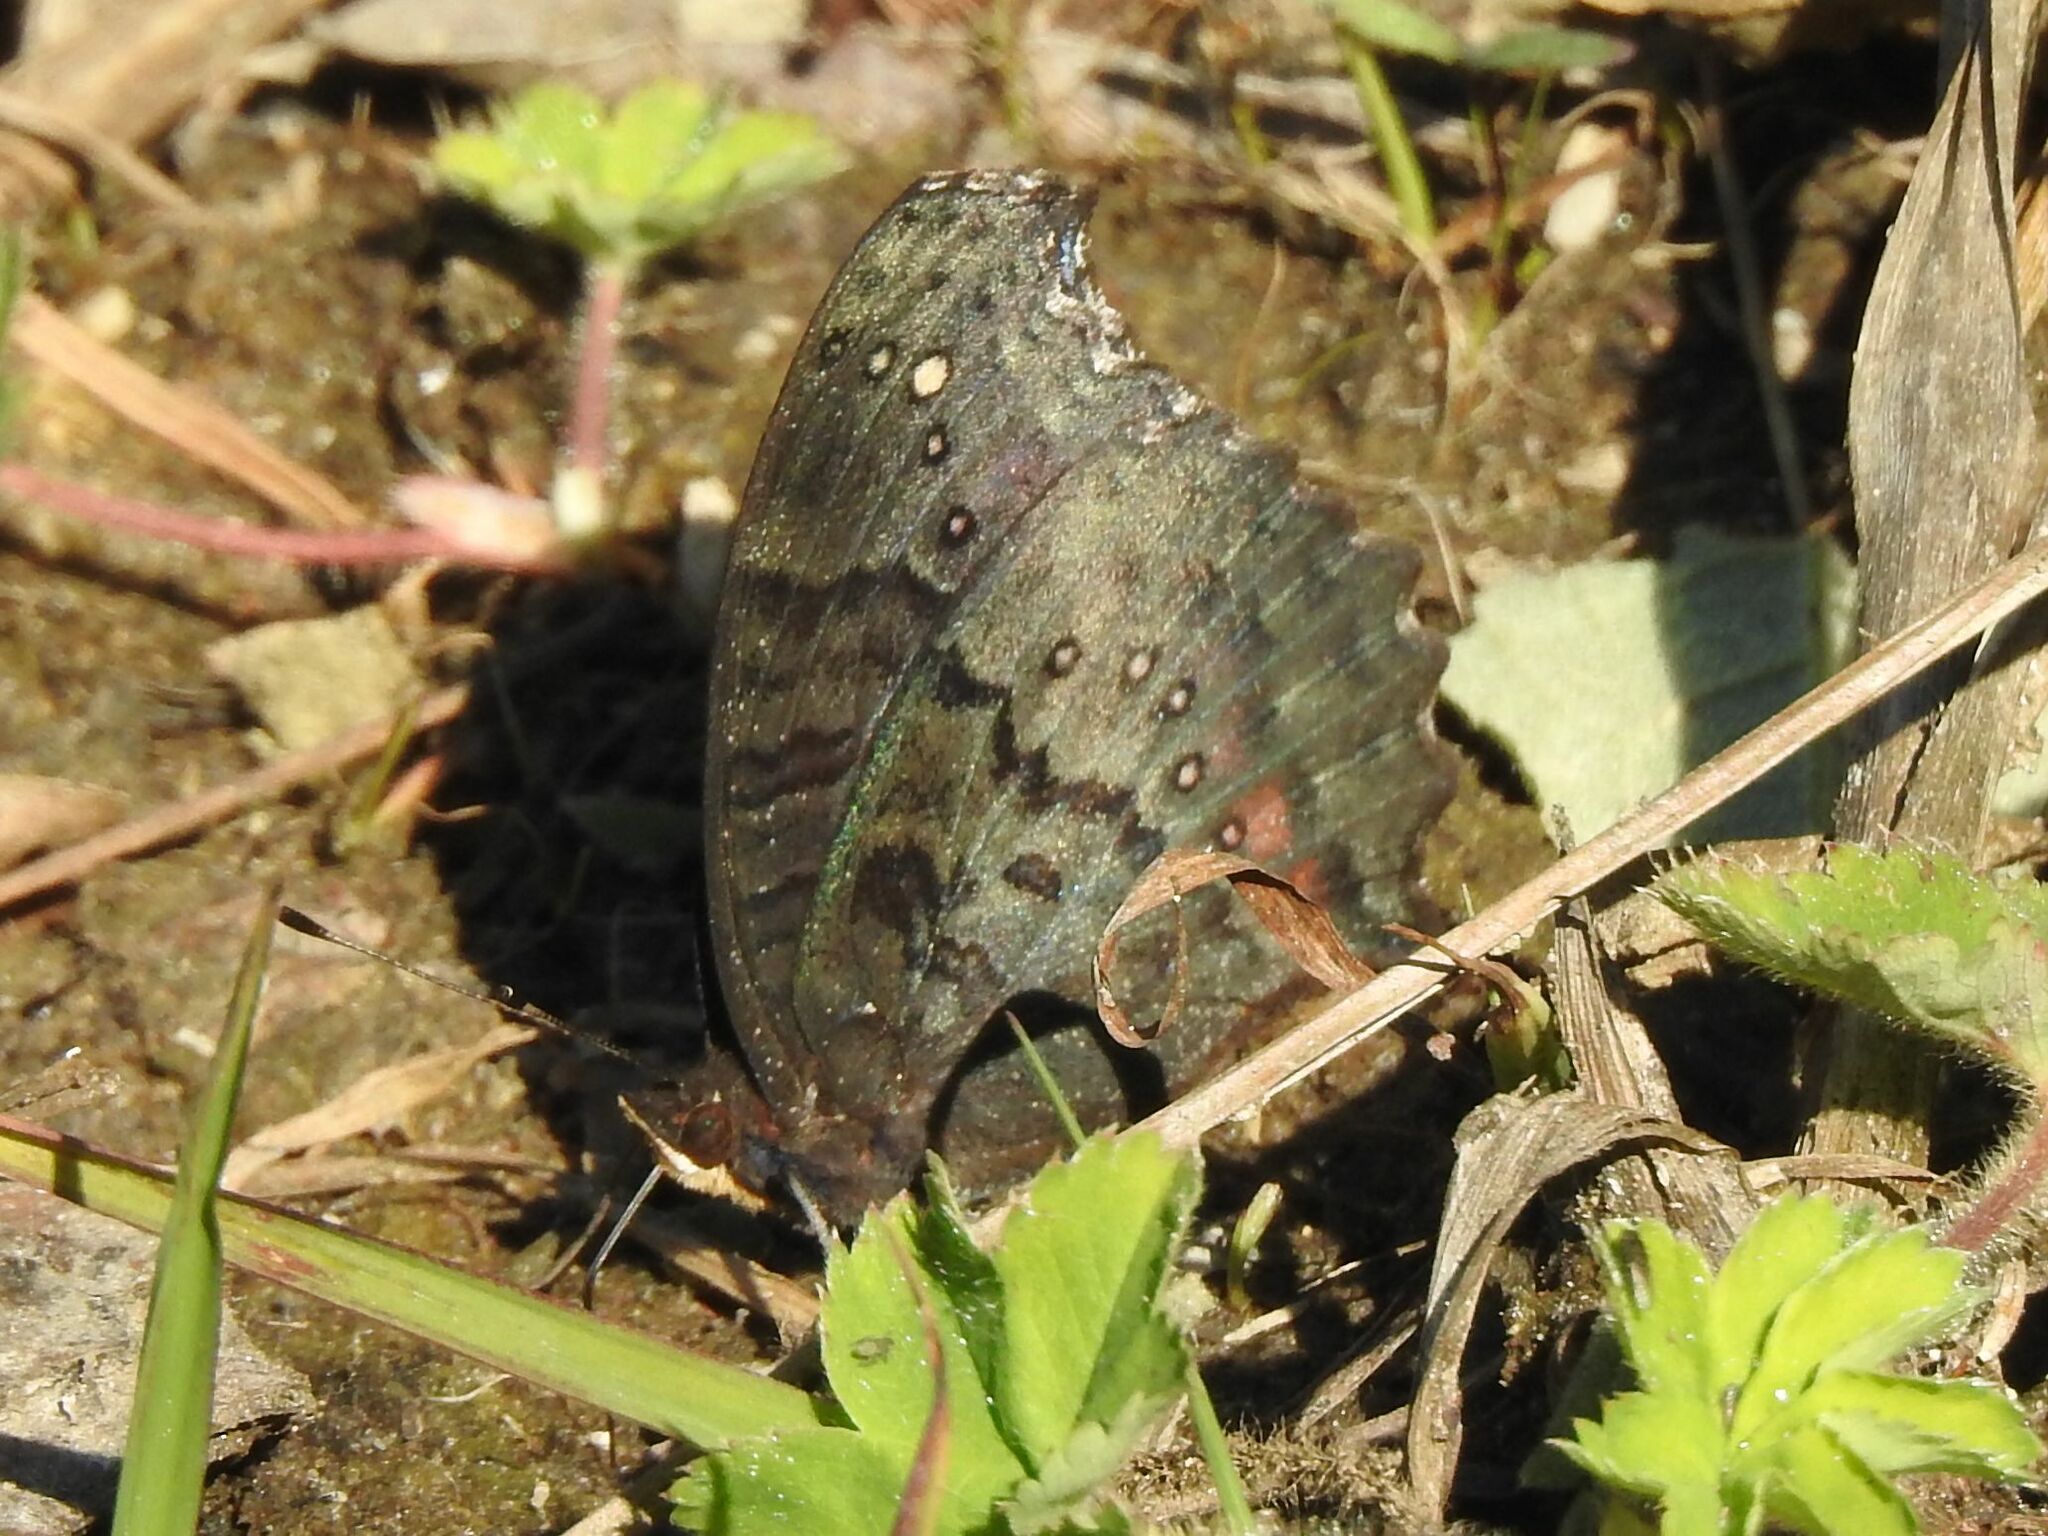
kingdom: Animalia
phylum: Arthropoda
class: Insecta
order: Lepidoptera
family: Nymphalidae
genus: Precis
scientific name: Precis octavia
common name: Gaudy commodore
